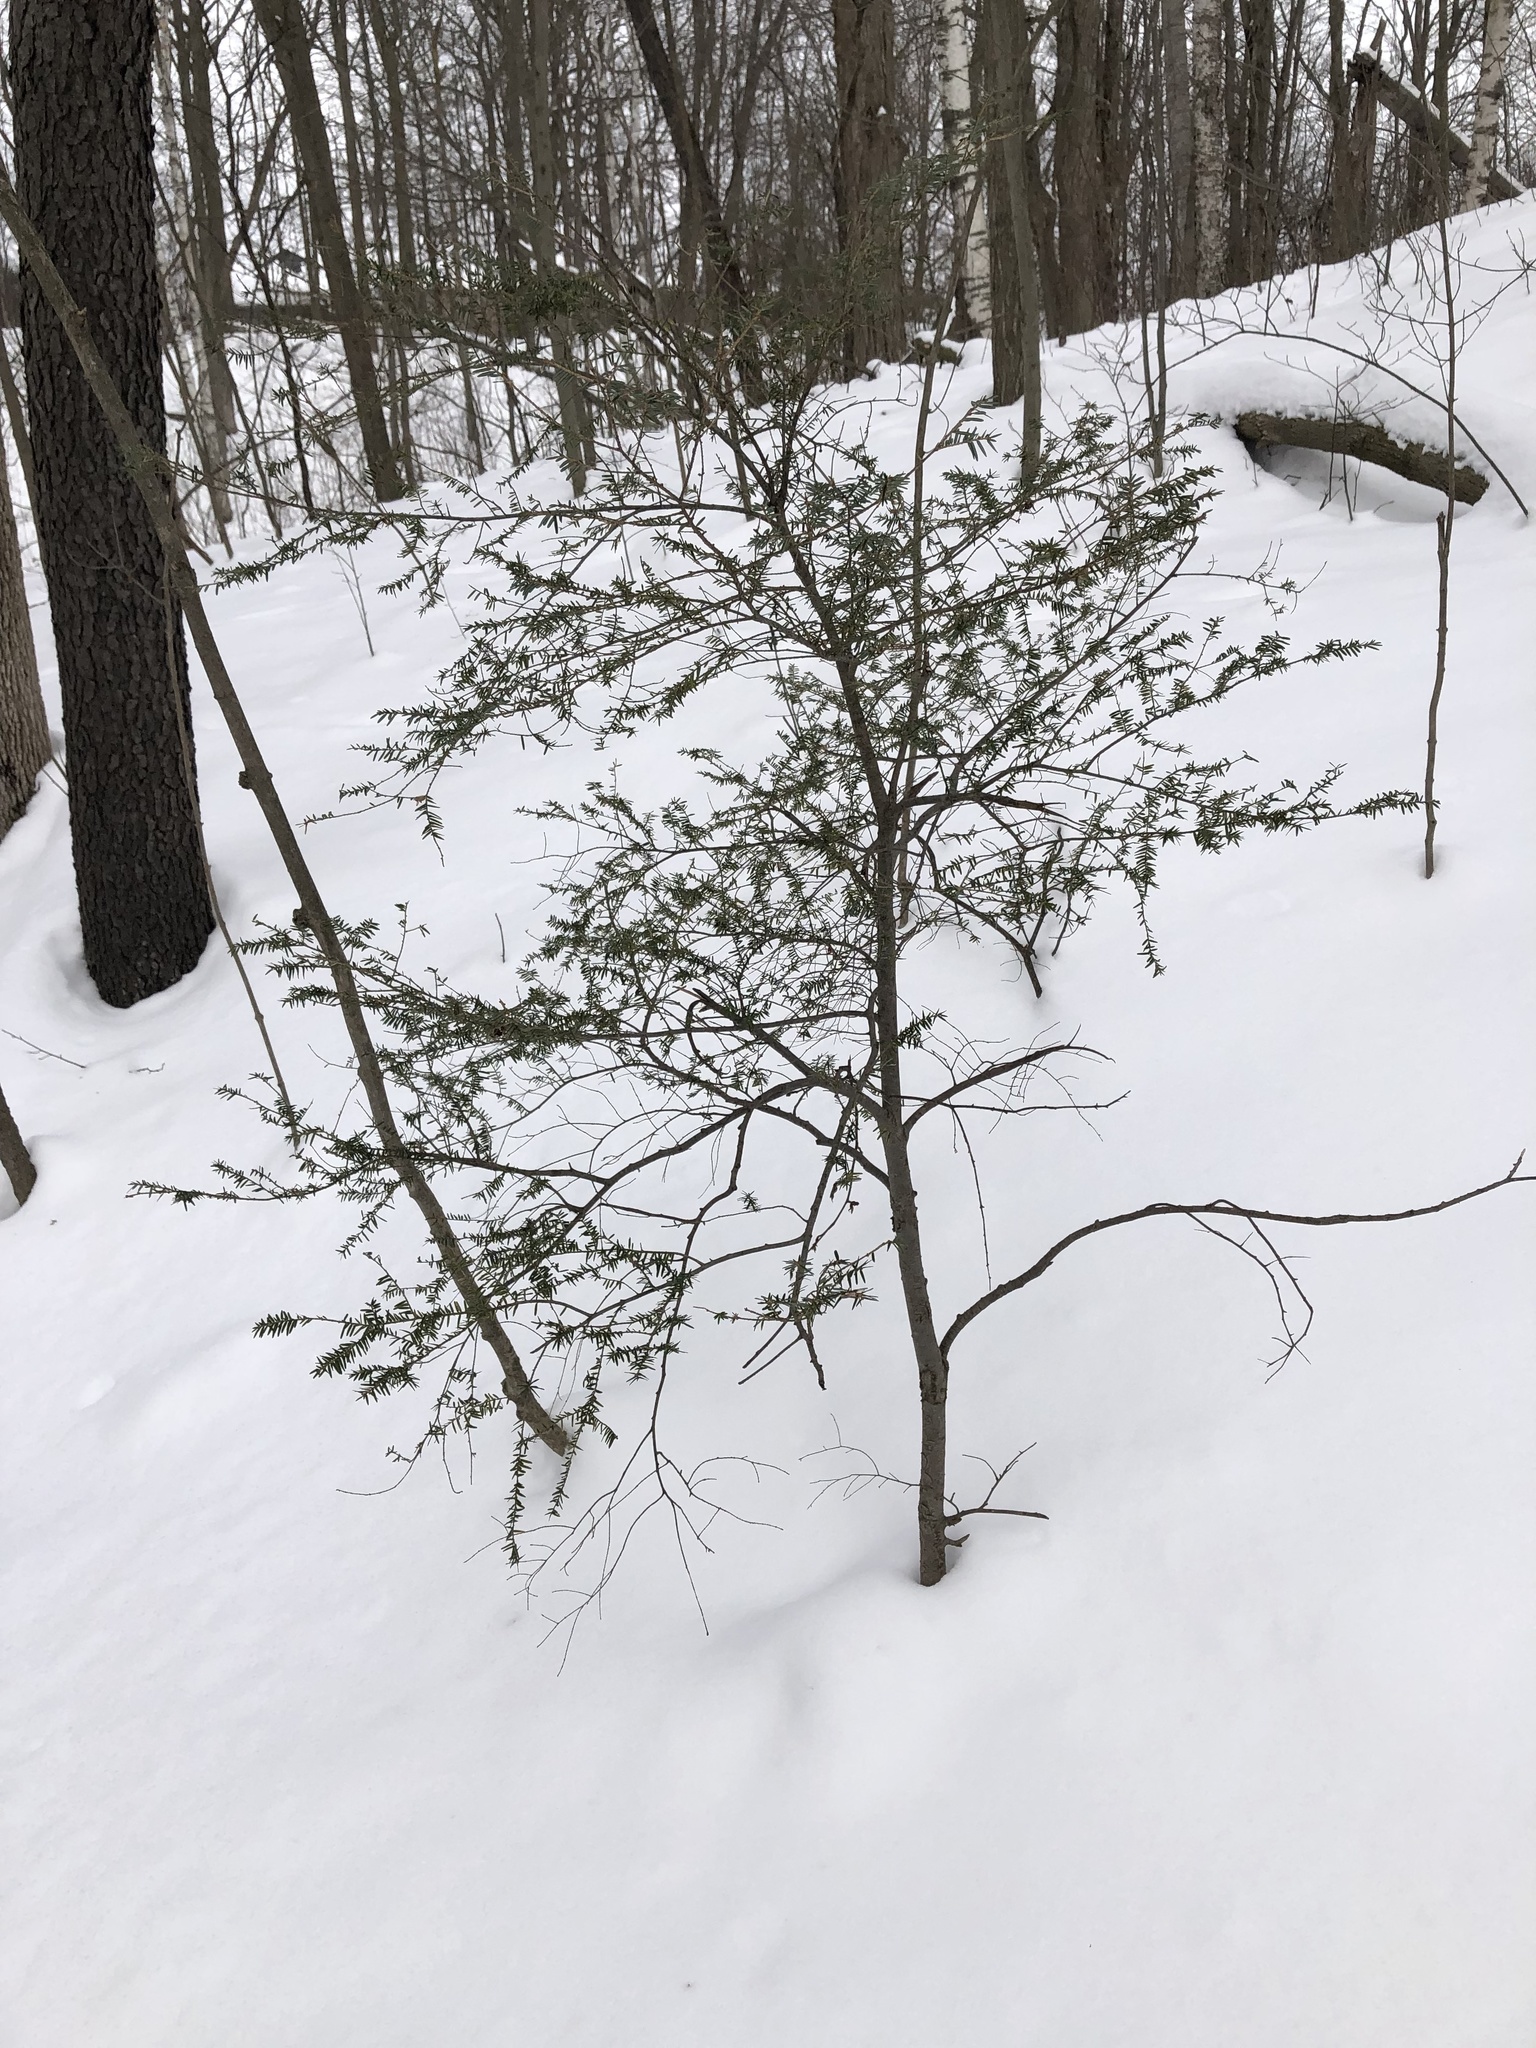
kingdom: Plantae
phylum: Tracheophyta
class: Pinopsida
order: Pinales
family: Pinaceae
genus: Tsuga
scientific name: Tsuga canadensis
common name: Eastern hemlock
